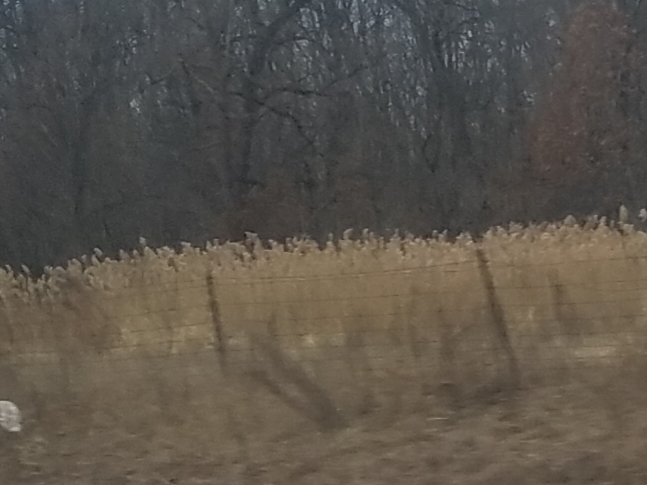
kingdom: Plantae
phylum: Tracheophyta
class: Liliopsida
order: Poales
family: Poaceae
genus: Phragmites
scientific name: Phragmites australis
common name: Common reed
